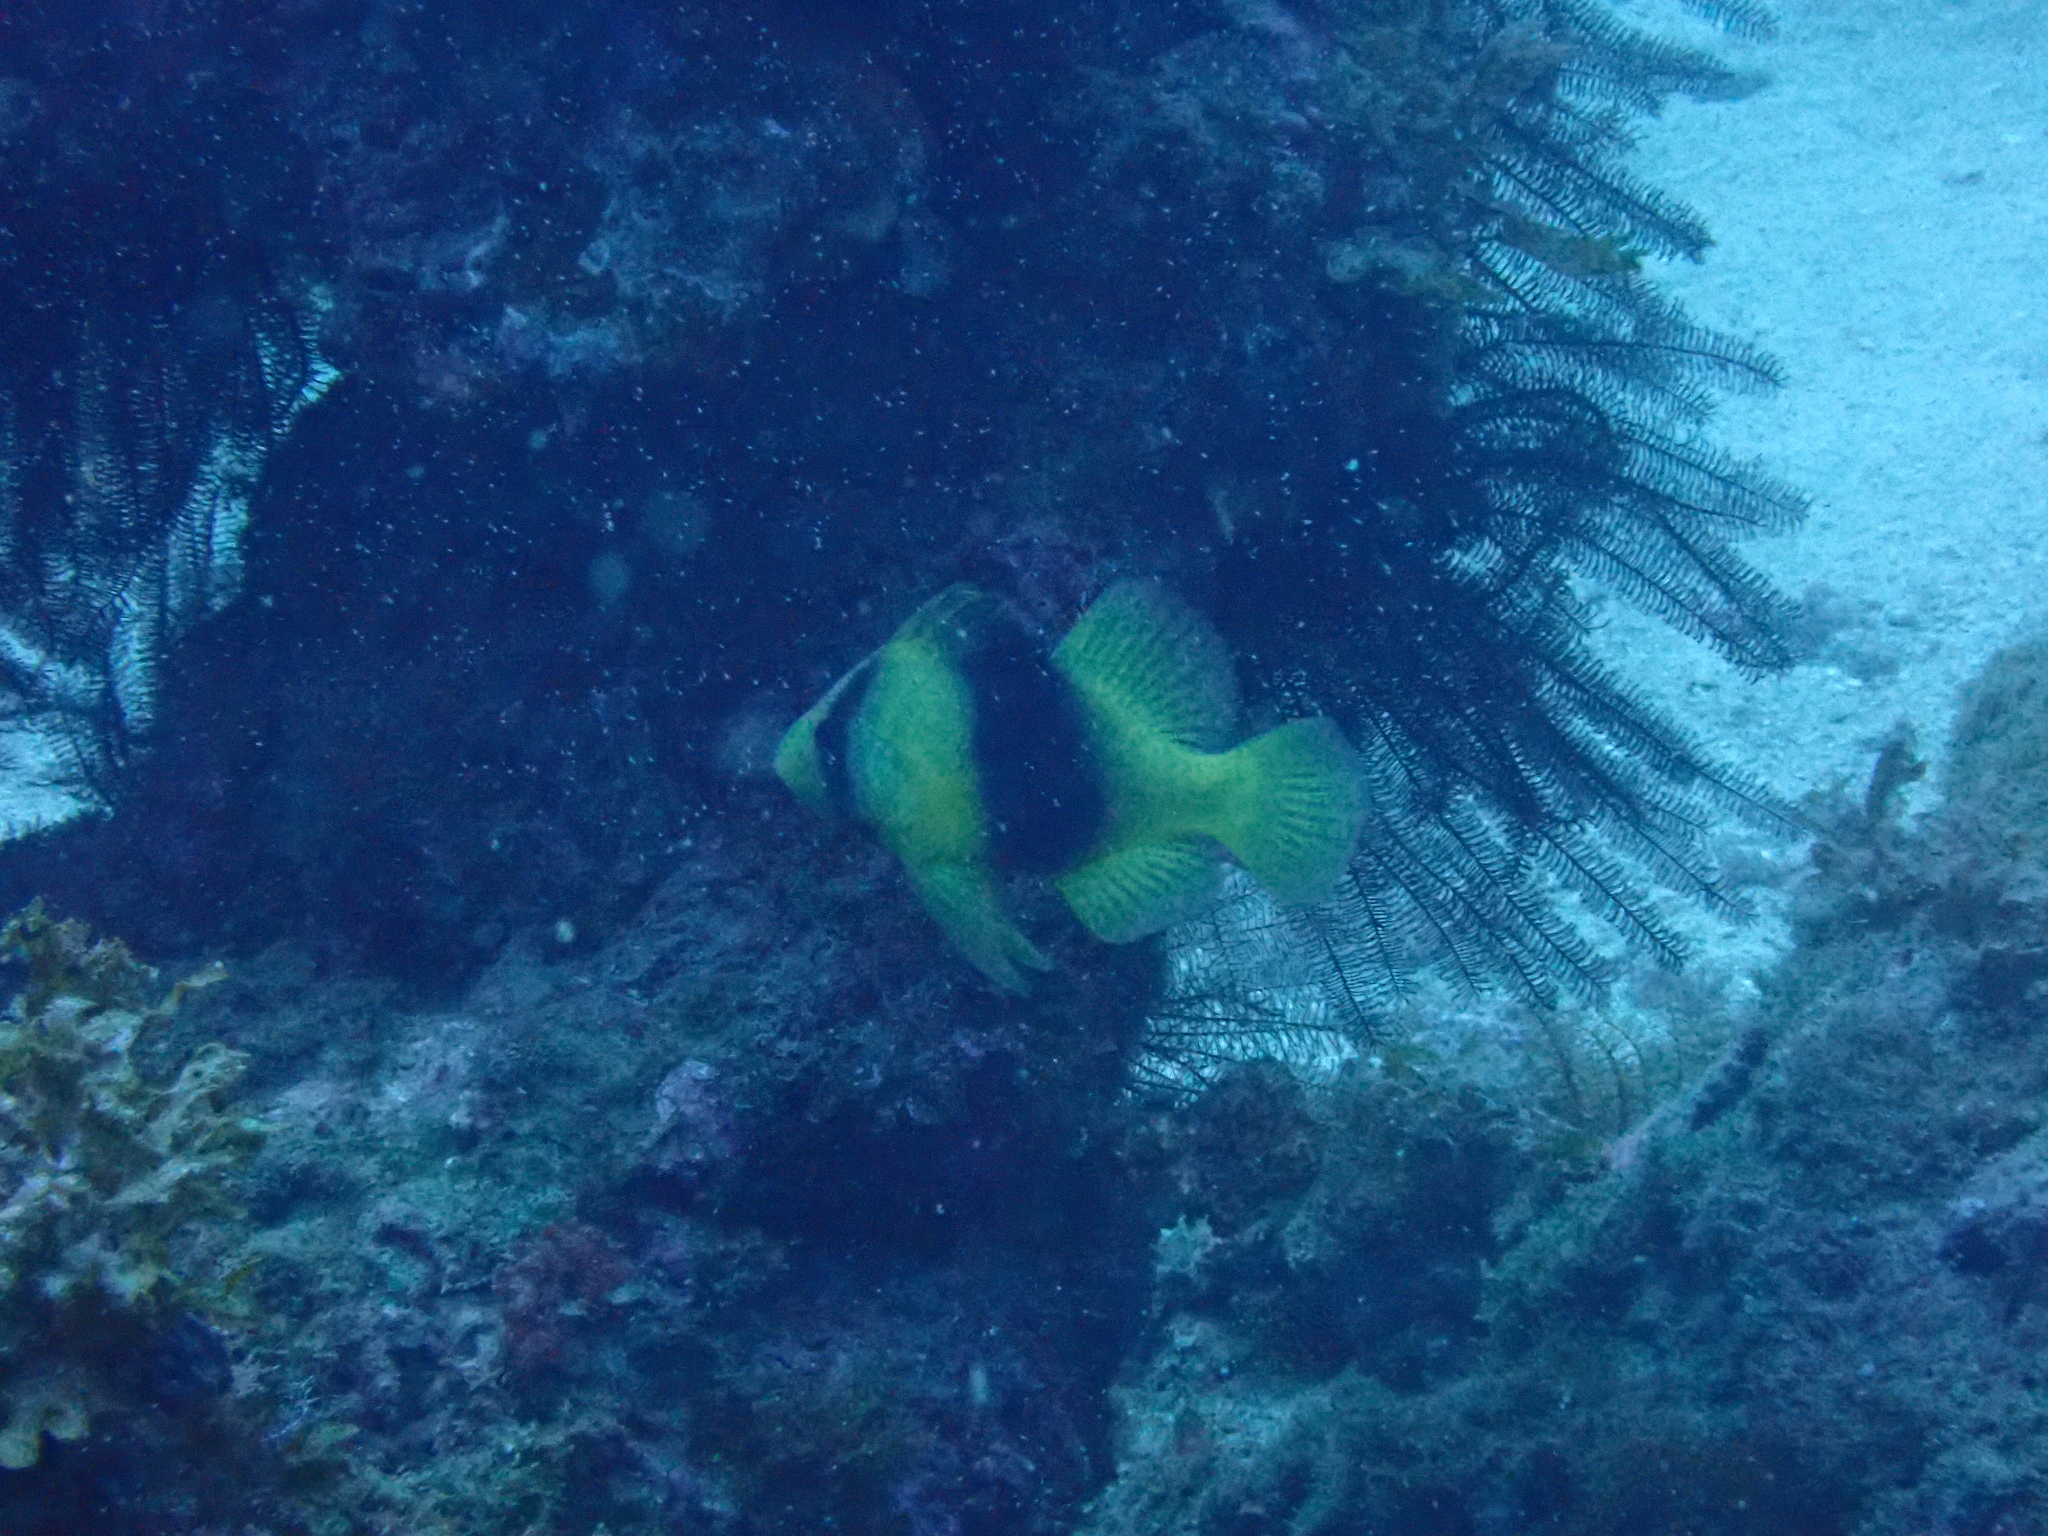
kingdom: Animalia
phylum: Chordata
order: Perciformes
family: Serranidae
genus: Diploprion
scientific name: Diploprion bifasciatum
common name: Barred soapfish
